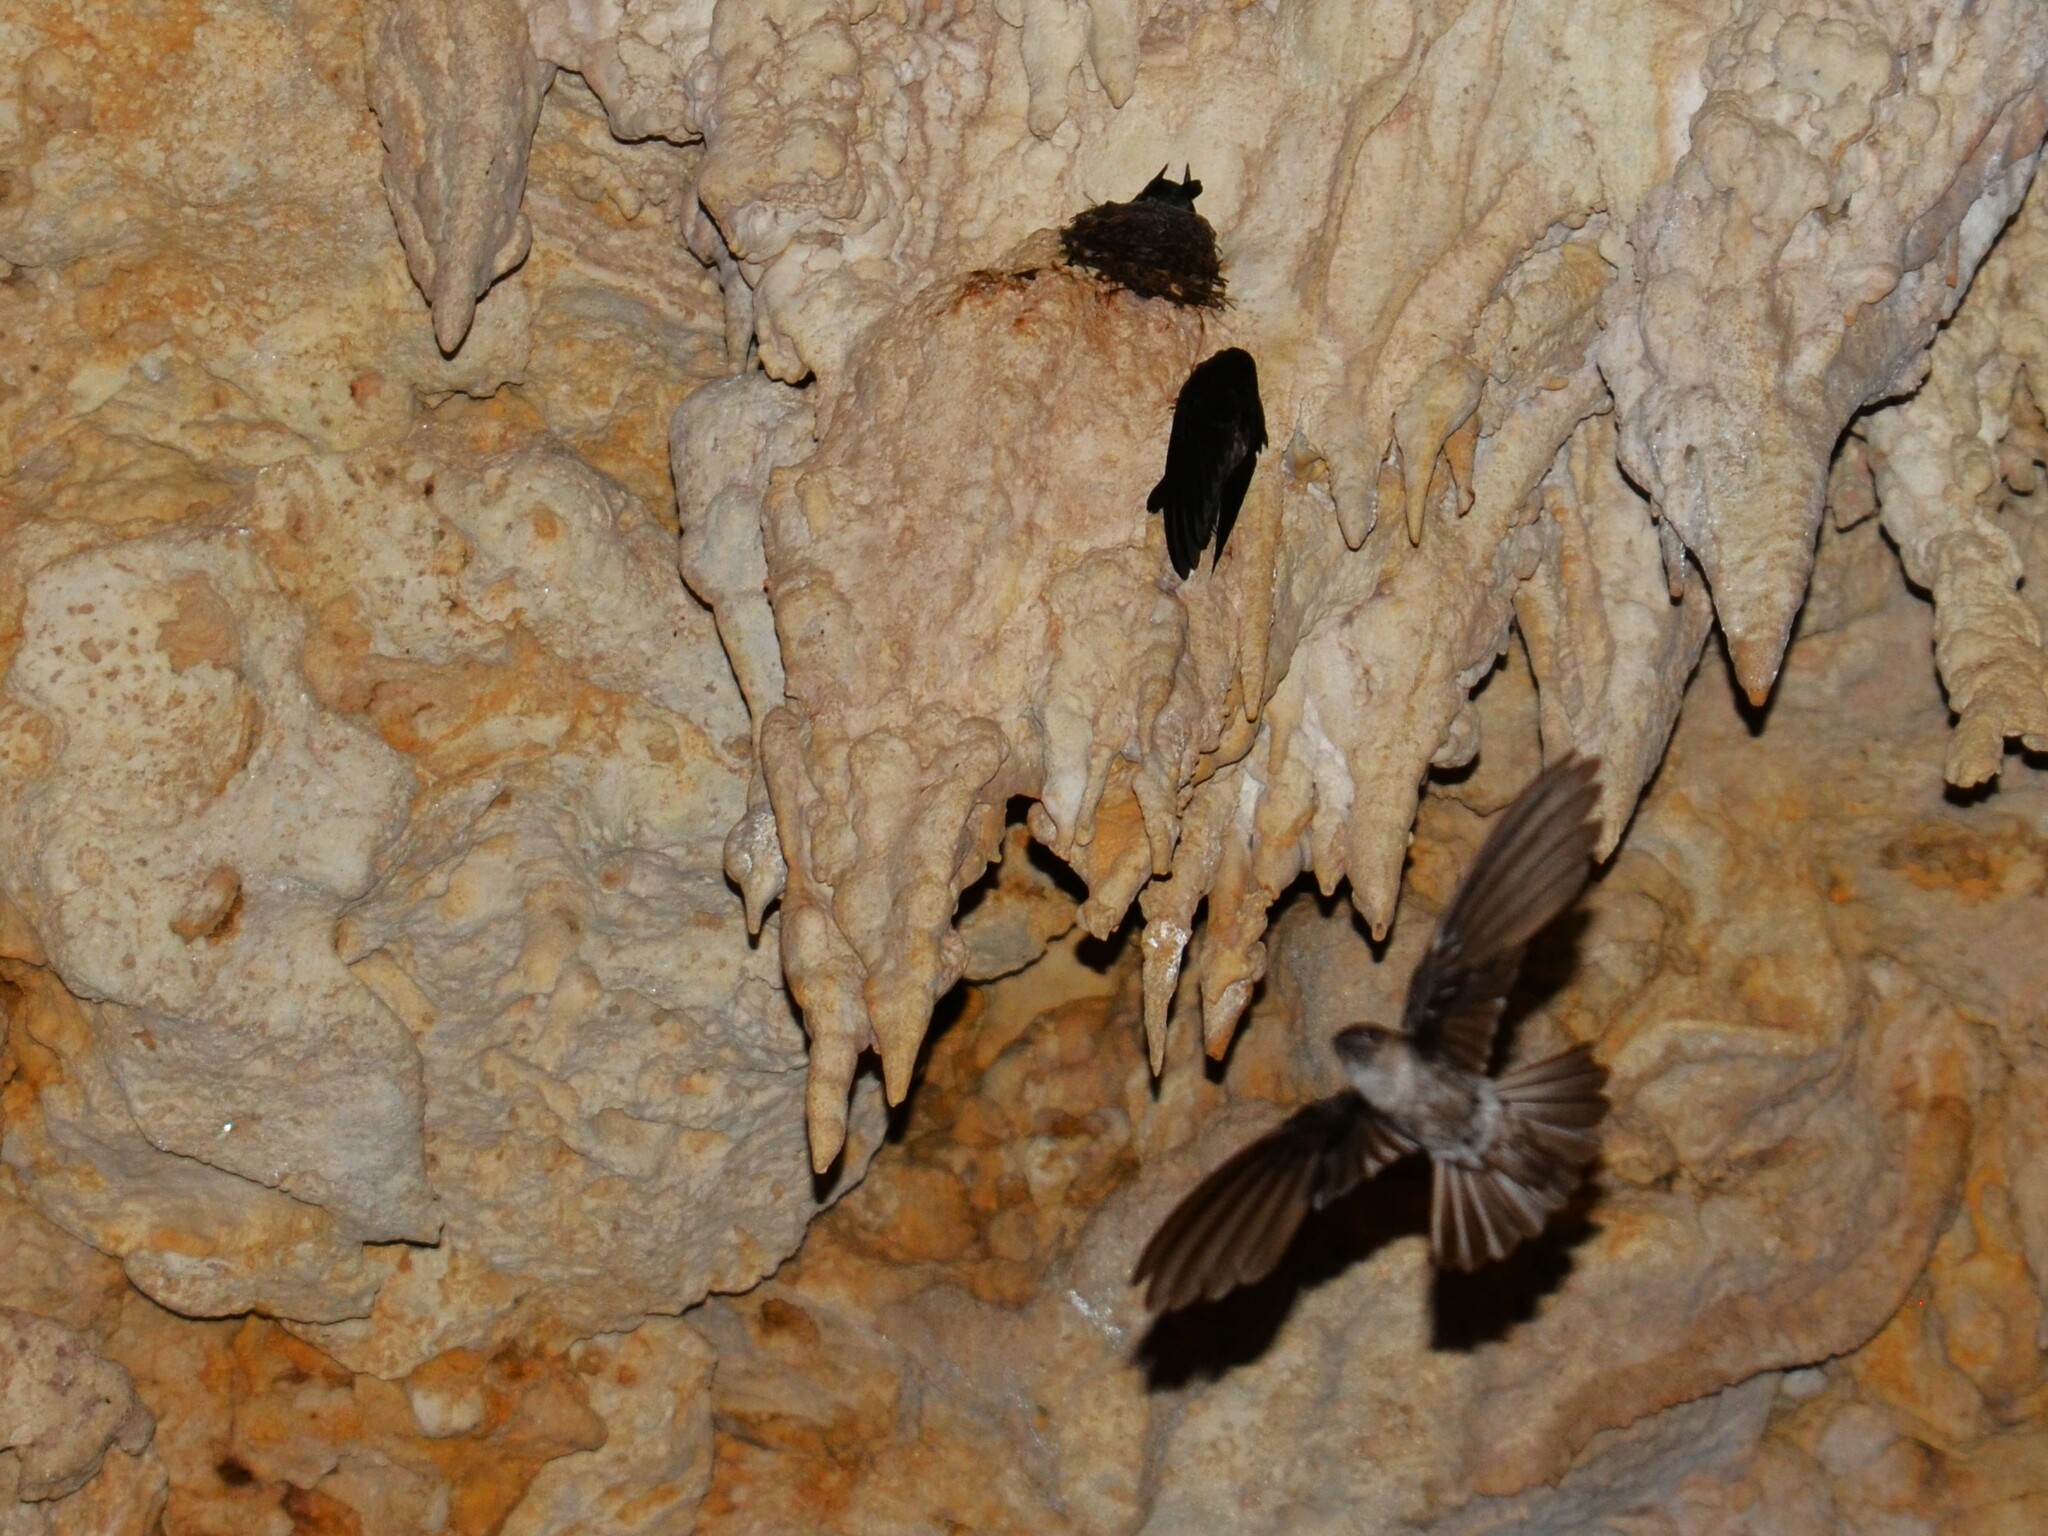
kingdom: Animalia
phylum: Chordata
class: Aves
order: Apodiformes
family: Apodidae
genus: Aerodramus
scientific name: Aerodramus sawtelli
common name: Atiu swiftlet
